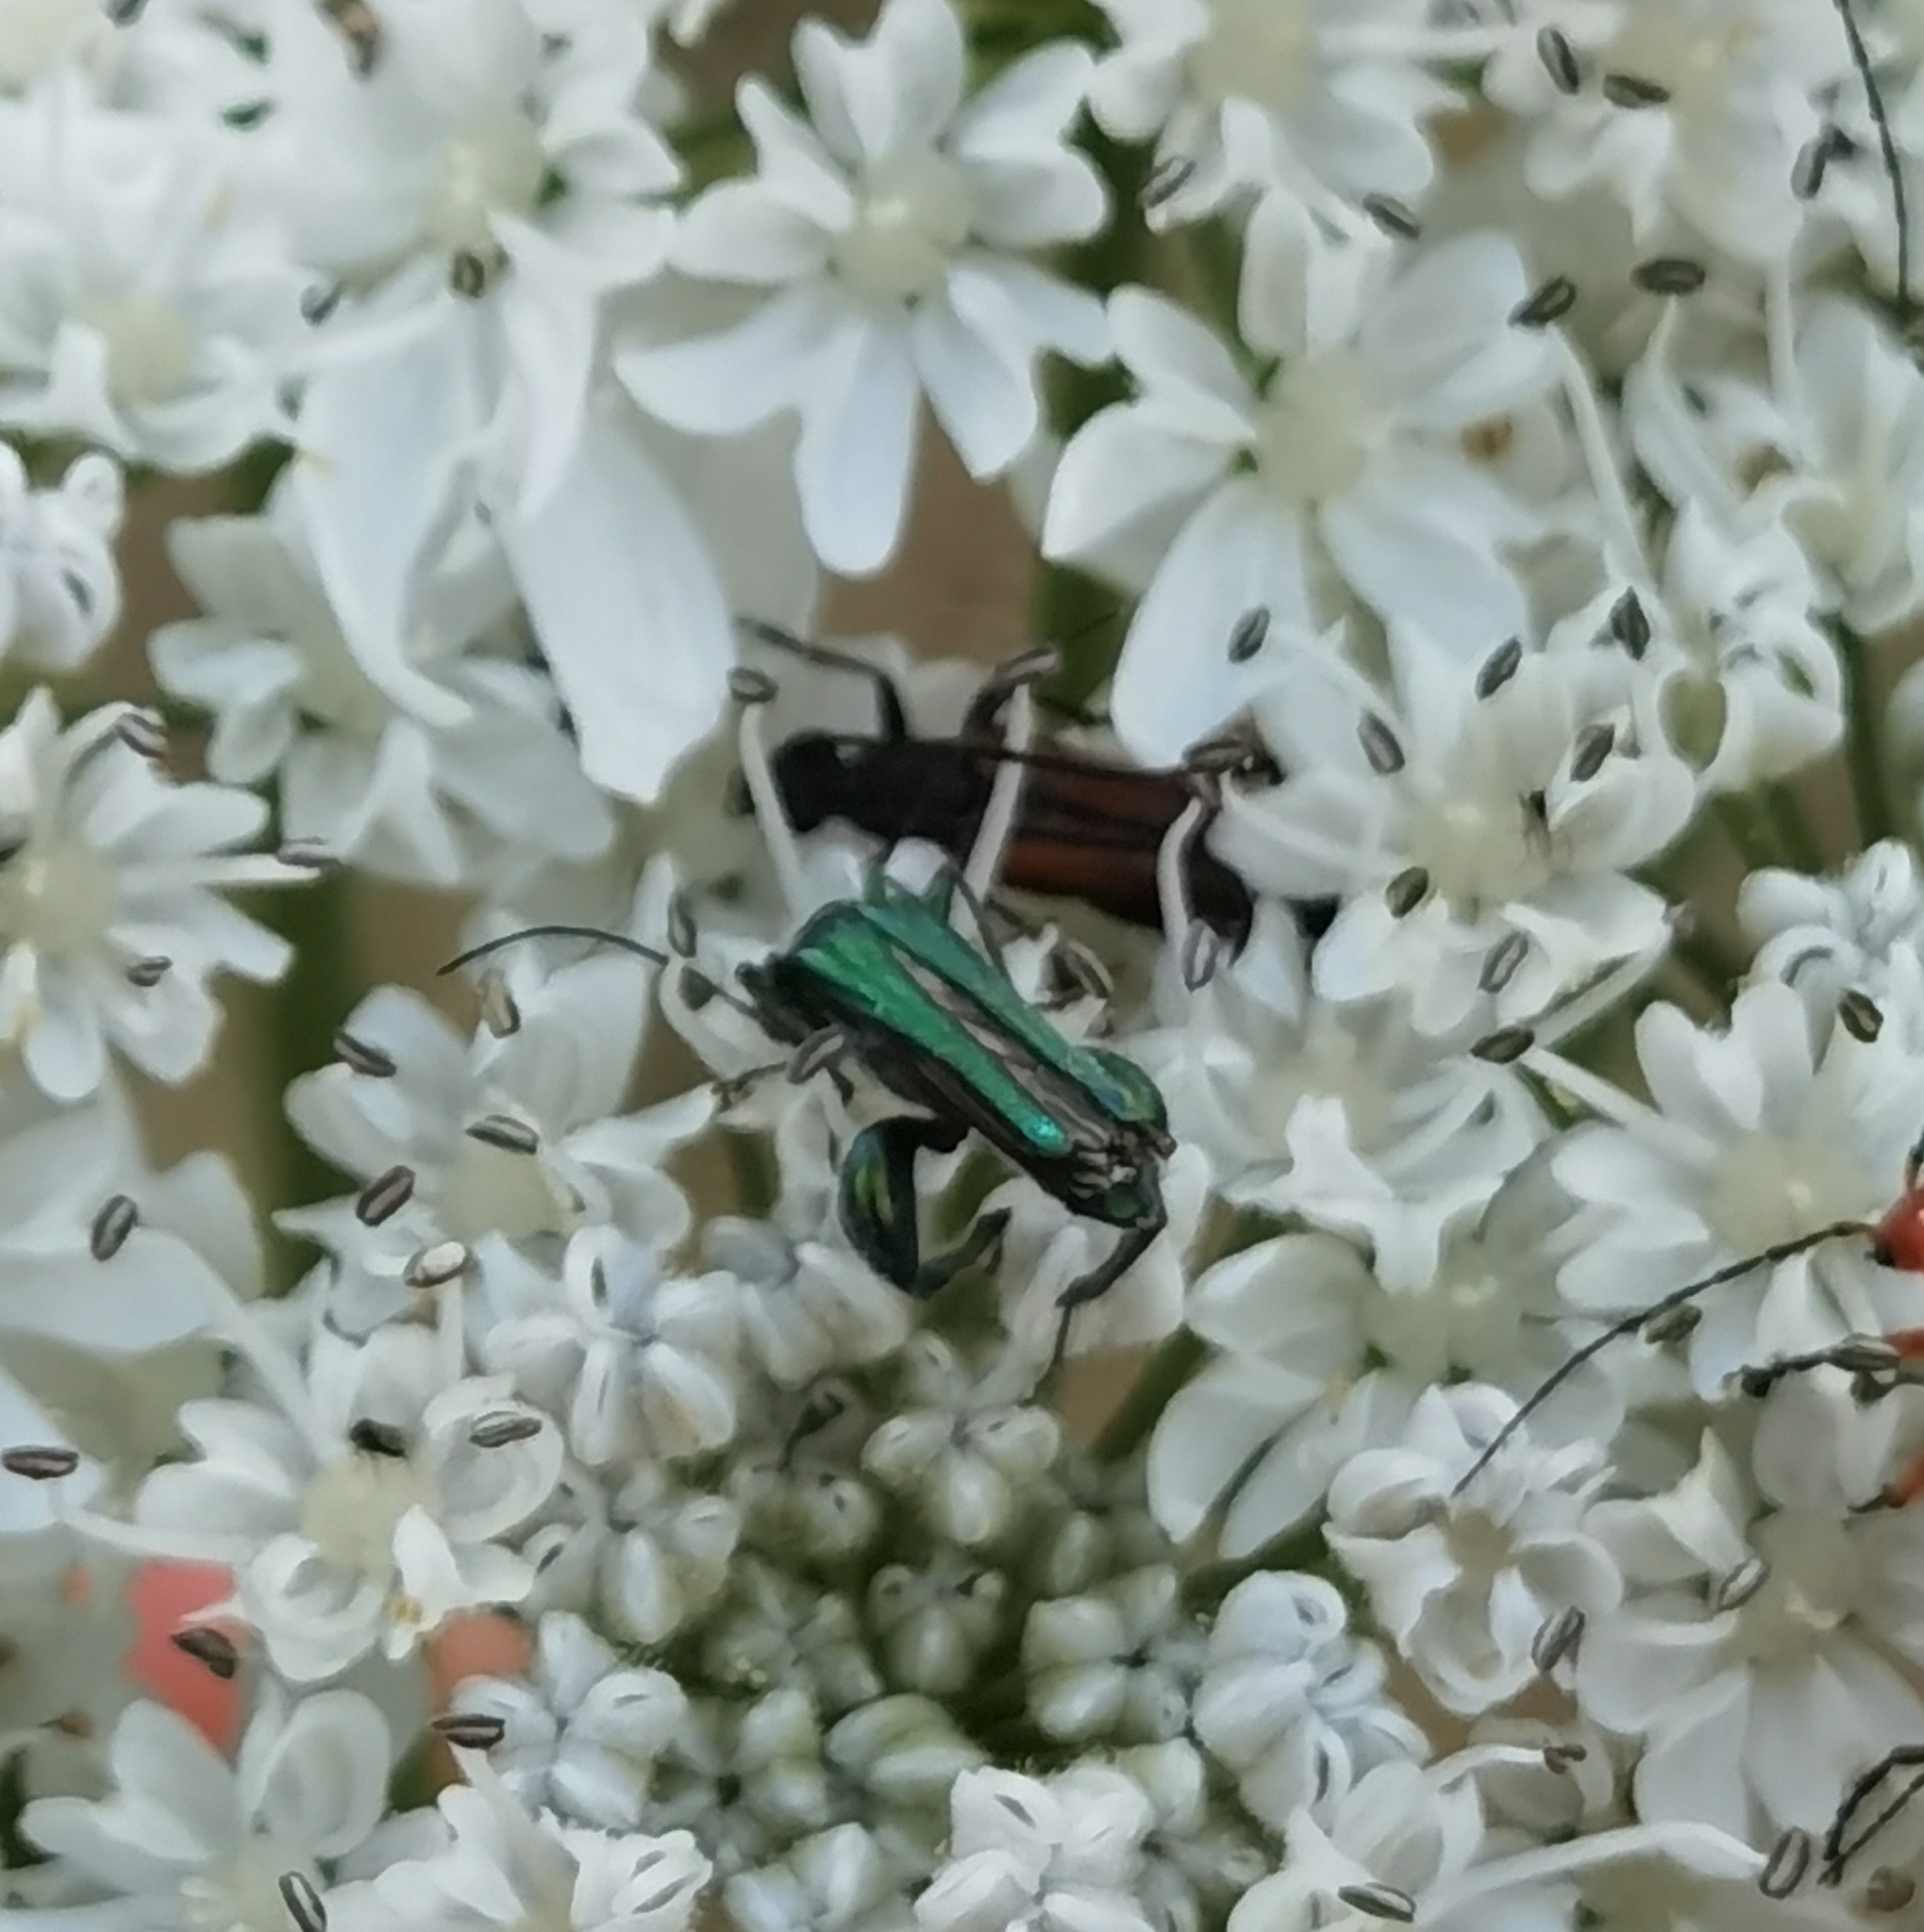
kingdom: Animalia
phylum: Arthropoda
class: Insecta
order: Coleoptera
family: Oedemeridae
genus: Oedemera
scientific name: Oedemera nobilis
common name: Swollen-thighed beetle
